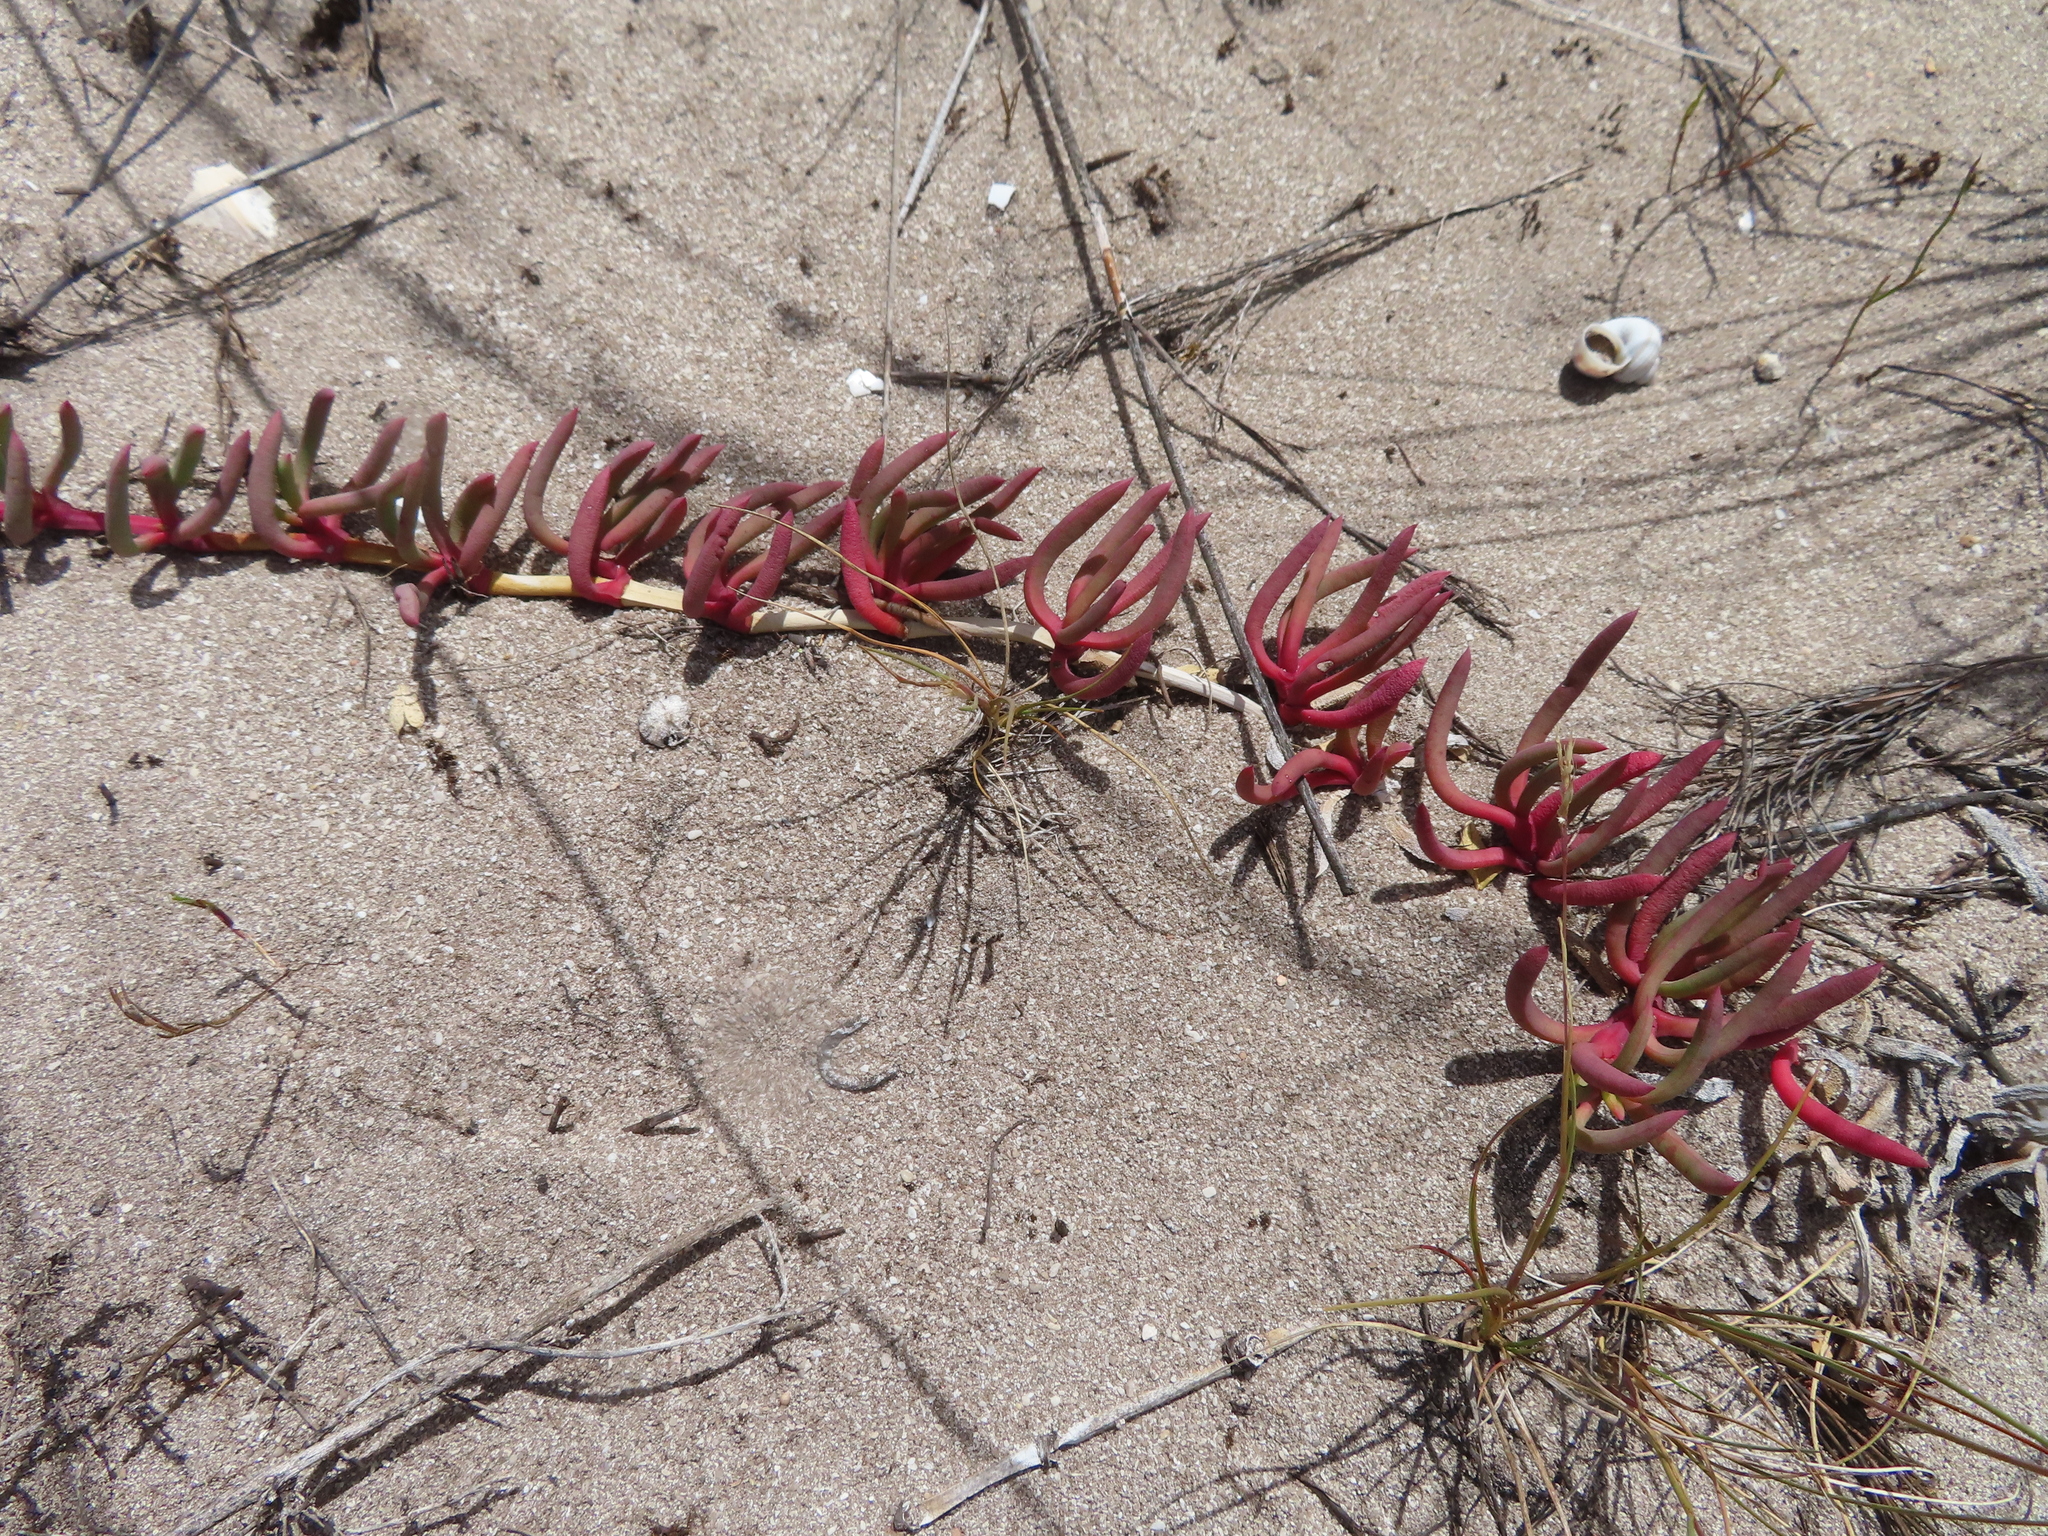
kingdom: Plantae
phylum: Tracheophyta
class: Magnoliopsida
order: Caryophyllales
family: Aizoaceae
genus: Jordaaniella
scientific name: Jordaaniella dubia
